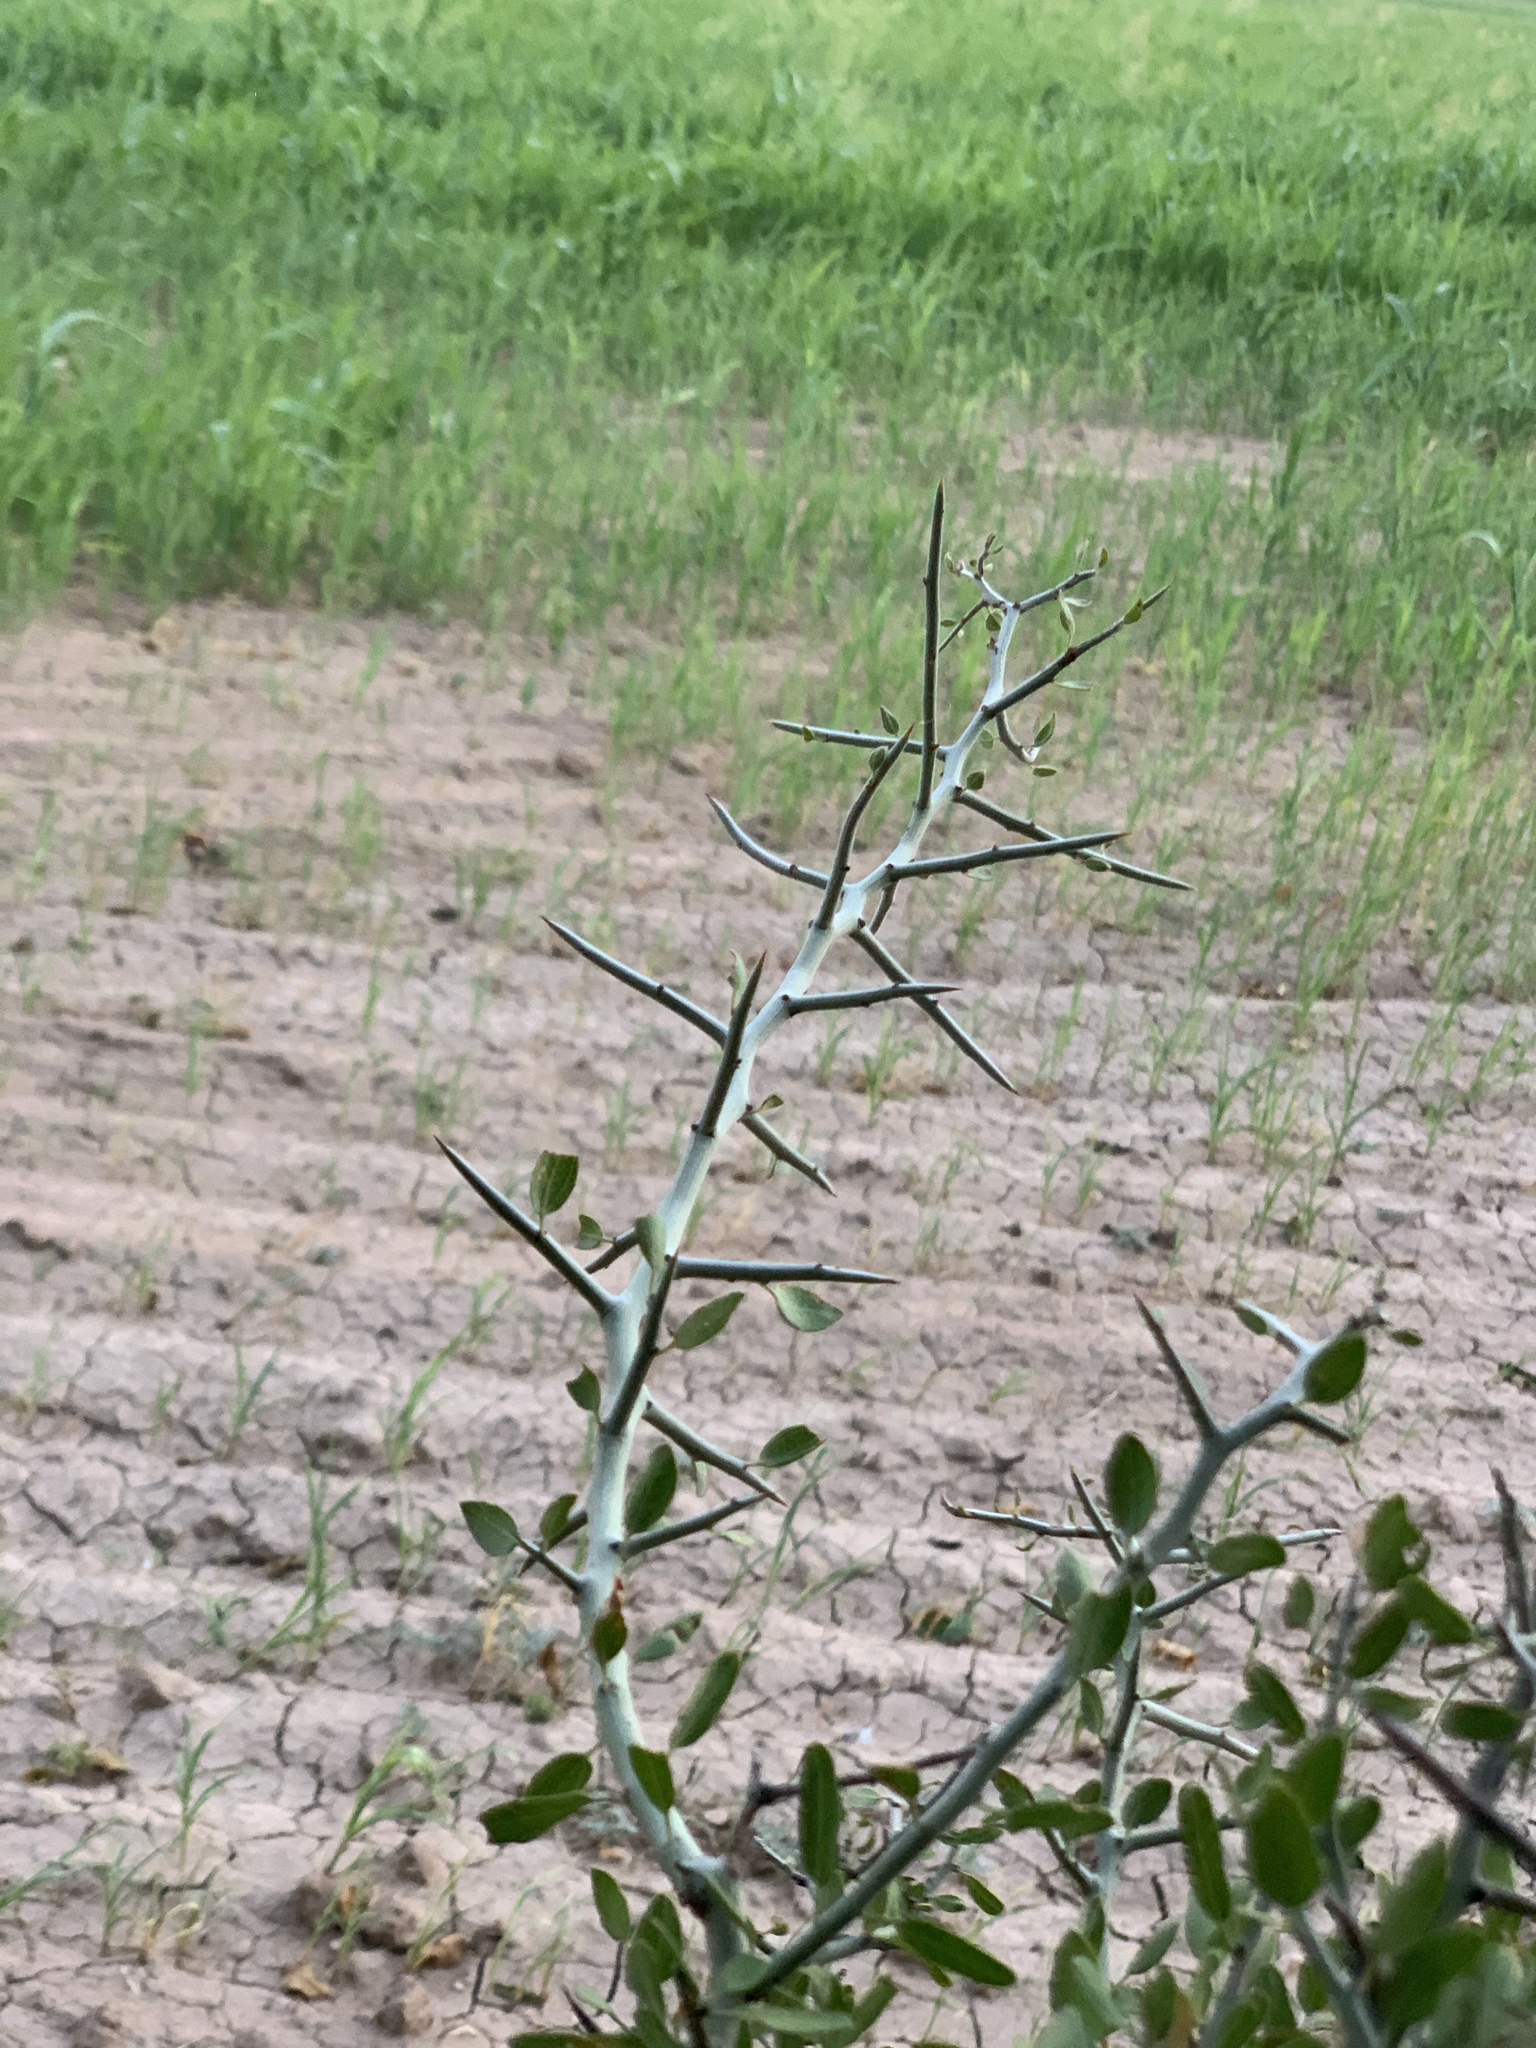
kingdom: Plantae
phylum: Tracheophyta
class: Magnoliopsida
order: Rosales
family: Rhamnaceae
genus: Sarcomphalus
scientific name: Sarcomphalus obtusifolius
